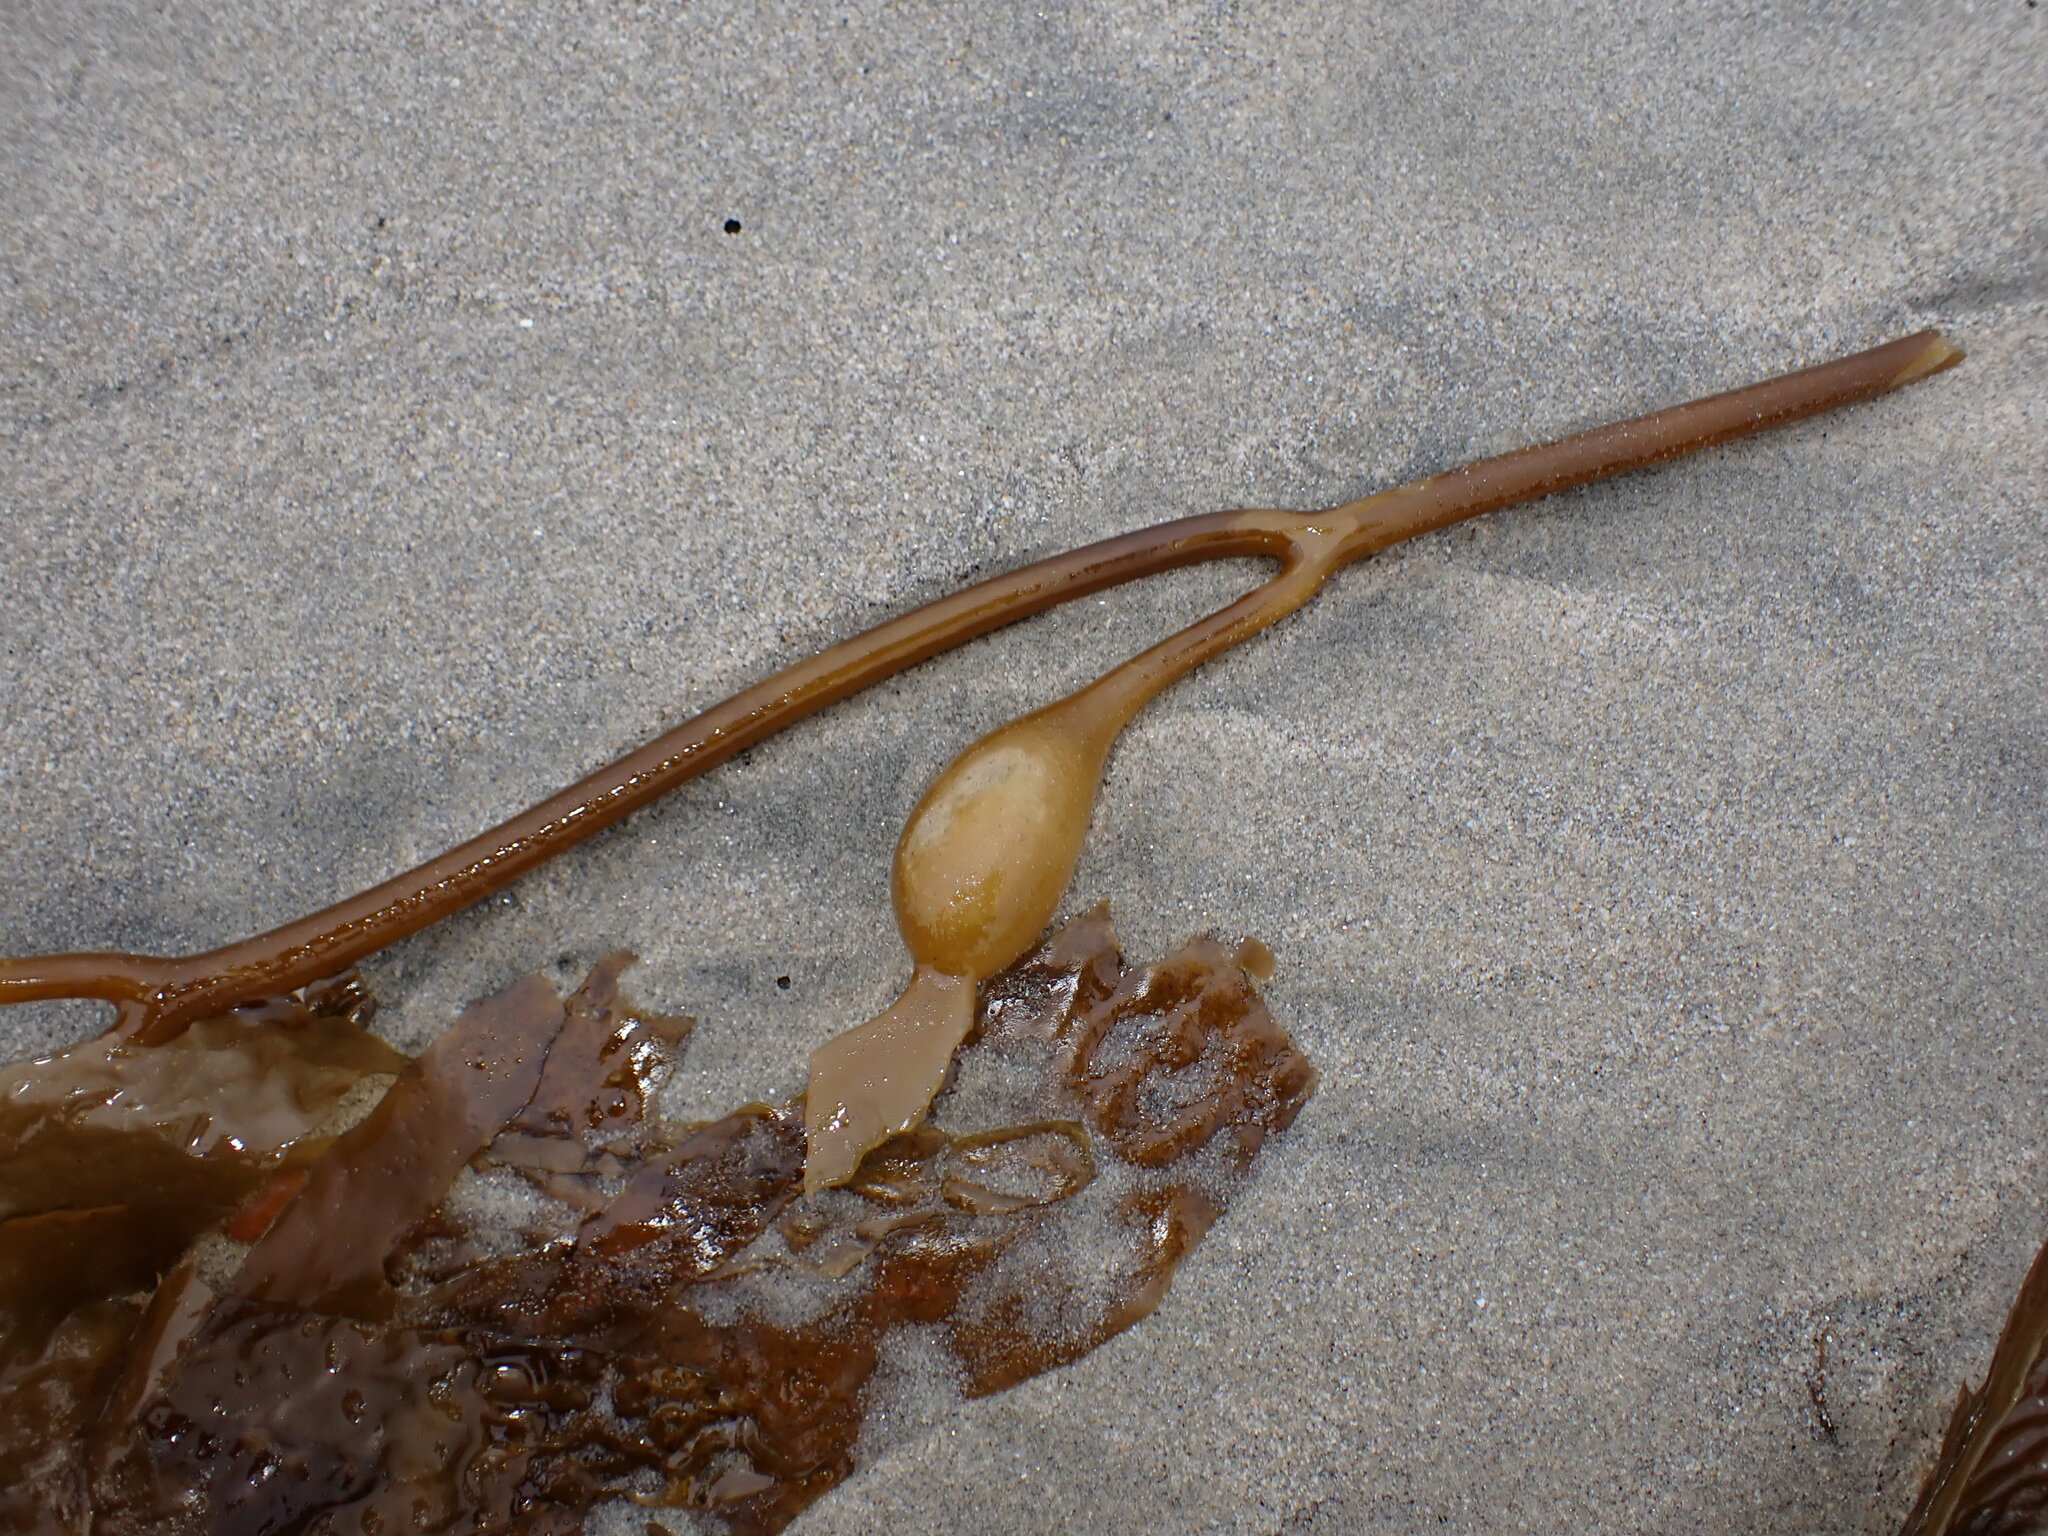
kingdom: Chromista
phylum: Ochrophyta
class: Phaeophyceae
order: Laminariales
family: Laminariaceae
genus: Macrocystis
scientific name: Macrocystis pyrifera
